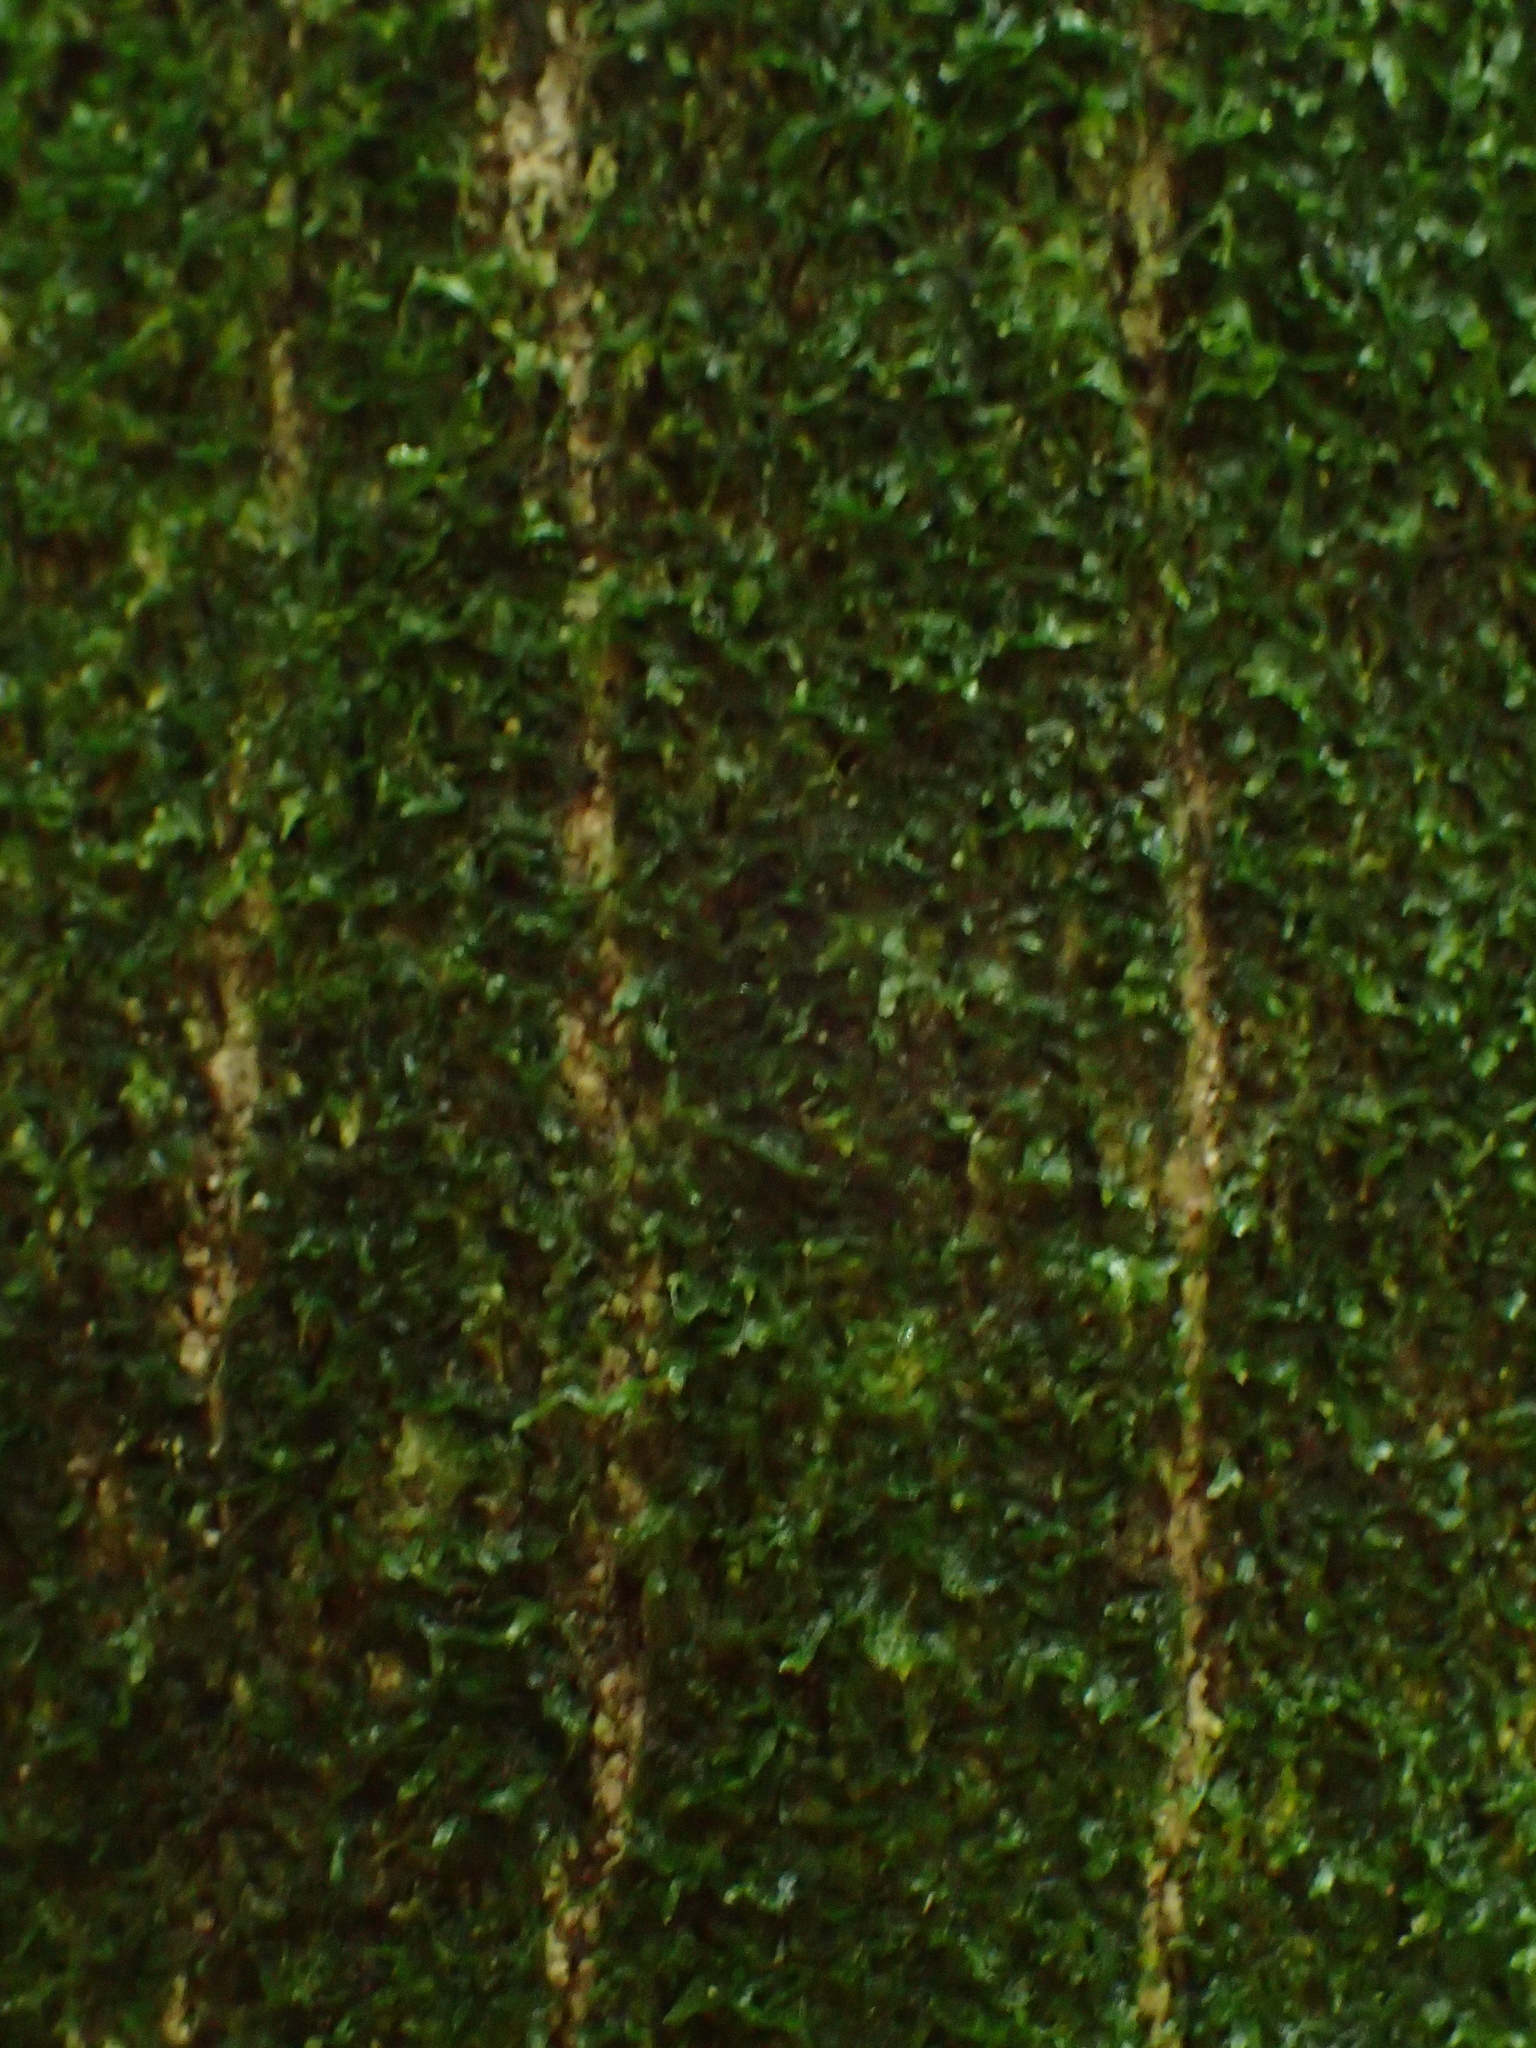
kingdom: Animalia
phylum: Chordata
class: Mammalia
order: Diprotodontia
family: Phalangeridae
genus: Trichosurus
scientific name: Trichosurus vulpecula
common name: Common brushtail
